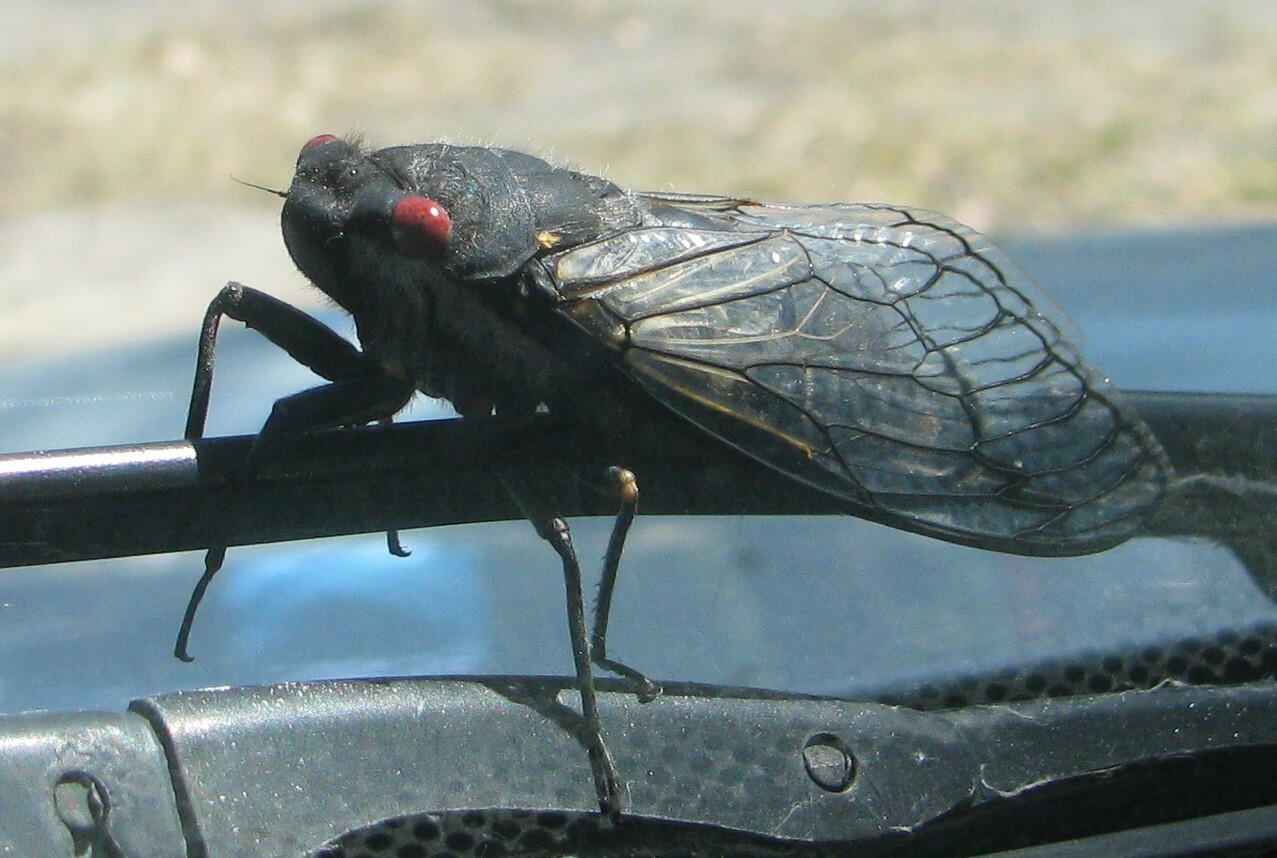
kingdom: Animalia
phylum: Arthropoda
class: Insecta
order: Hemiptera
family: Cicadidae
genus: Psaltoda
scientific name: Psaltoda moerens
